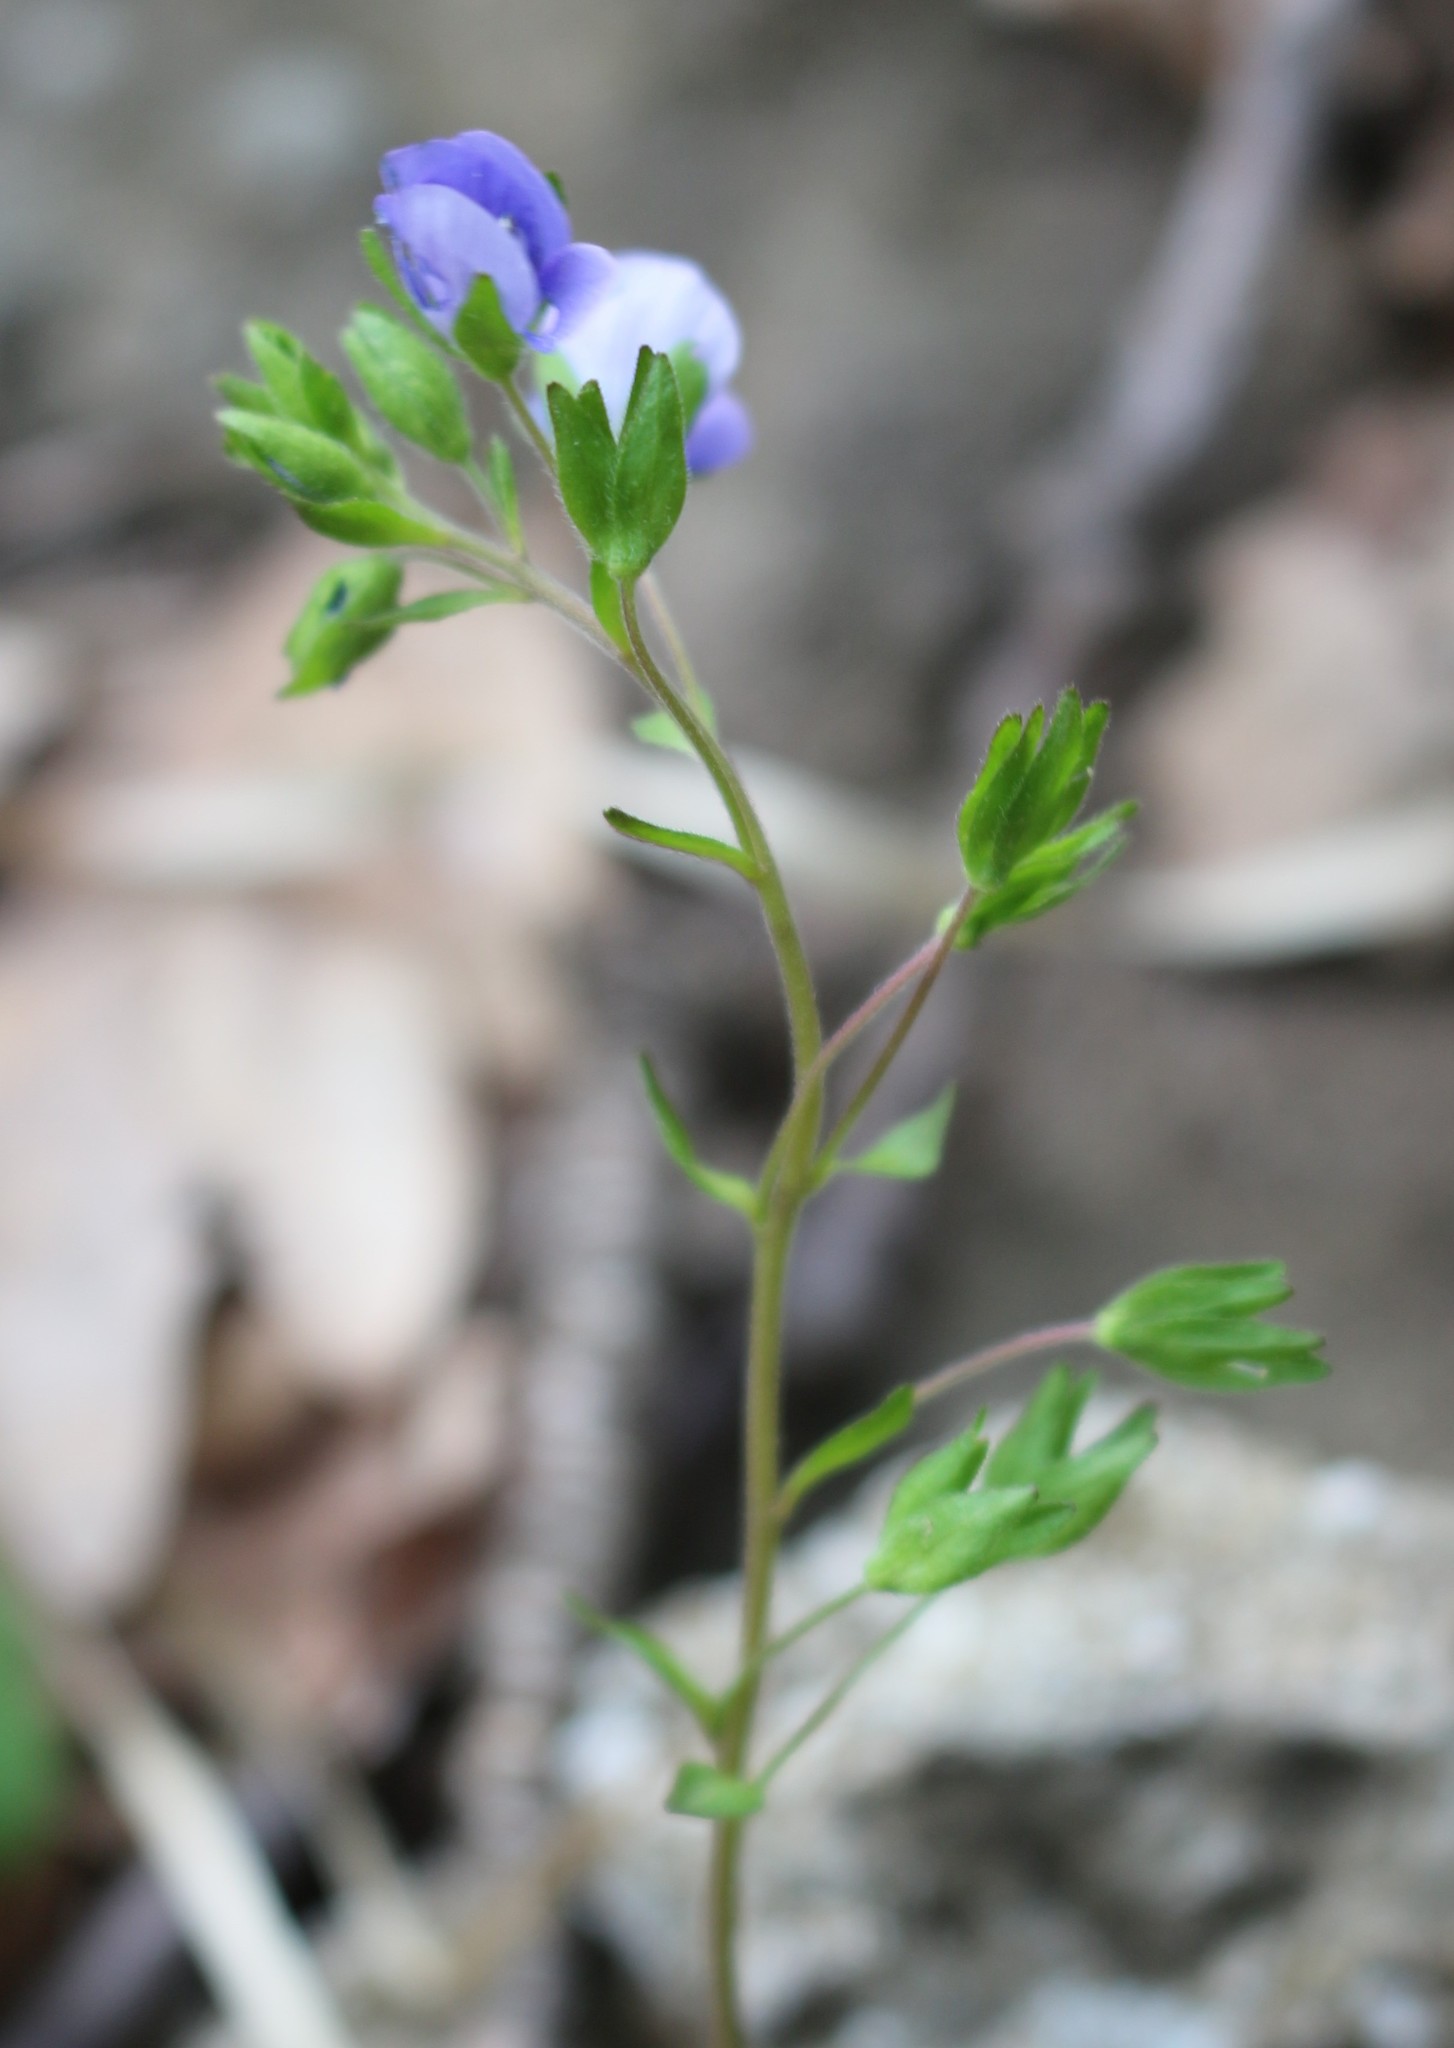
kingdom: Plantae
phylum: Tracheophyta
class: Magnoliopsida
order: Lamiales
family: Plantaginaceae
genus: Veronica
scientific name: Veronica
